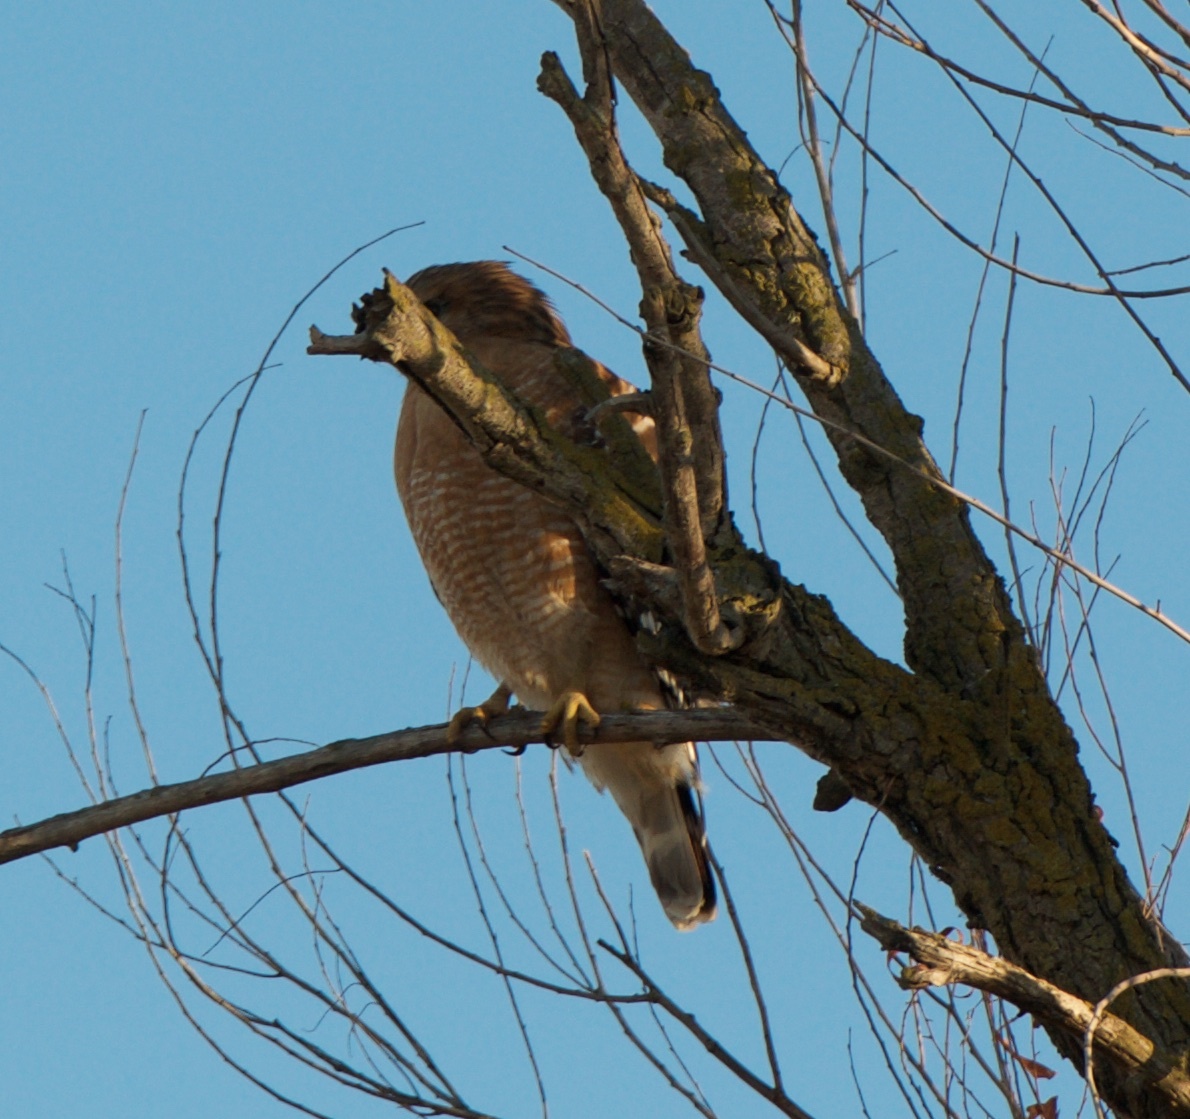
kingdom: Animalia
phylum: Chordata
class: Aves
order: Accipitriformes
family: Accipitridae
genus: Buteo
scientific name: Buteo lineatus
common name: Red-shouldered hawk
